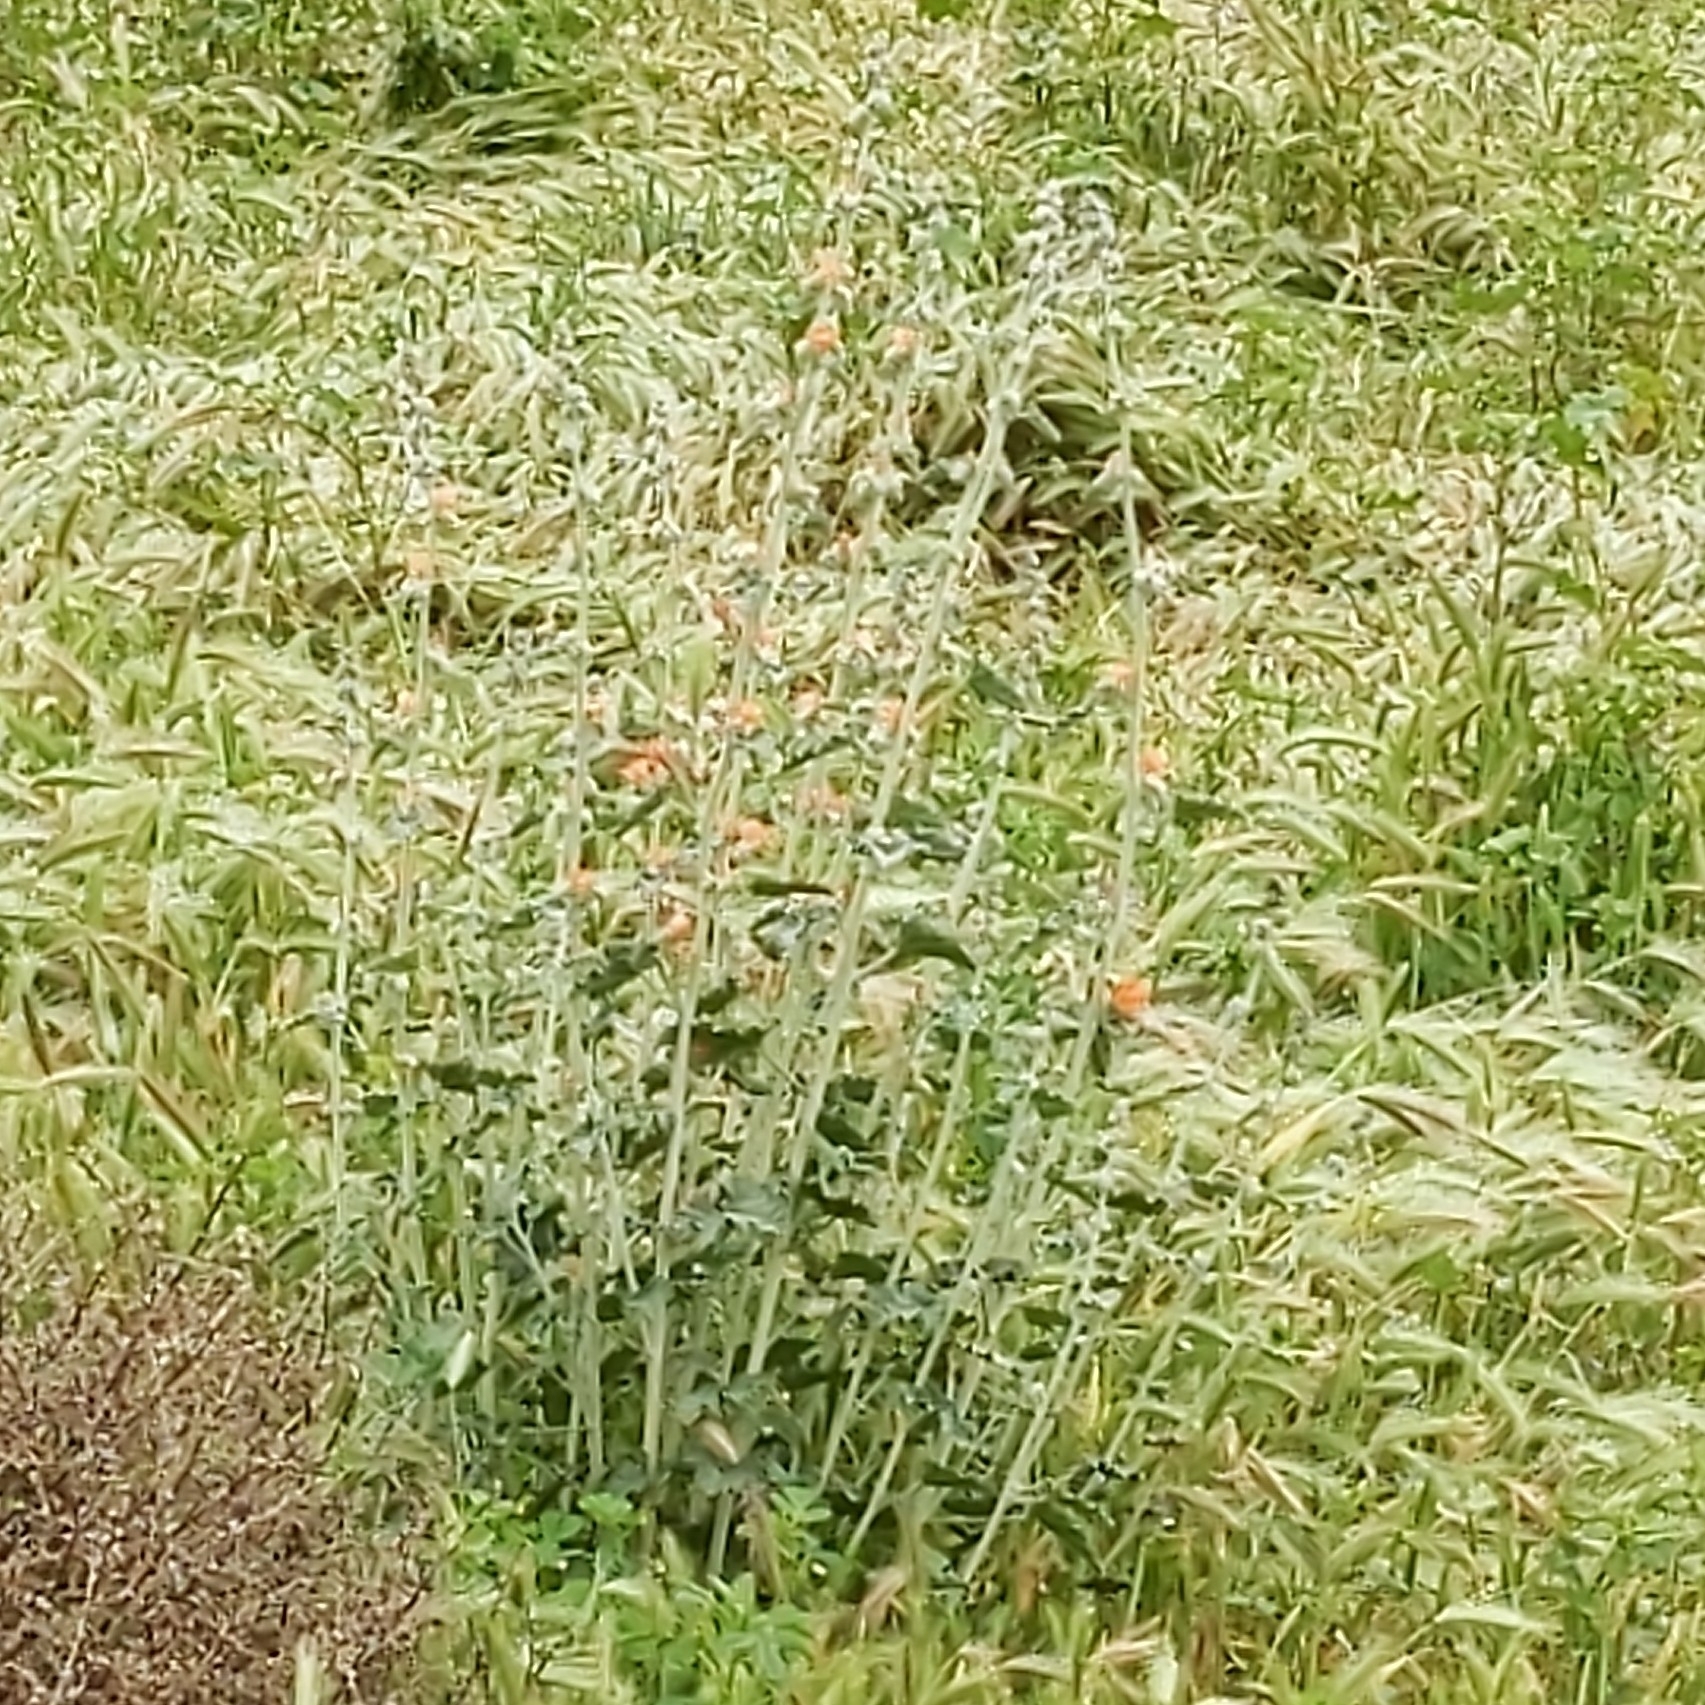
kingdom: Plantae
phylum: Tracheophyta
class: Magnoliopsida
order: Malvales
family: Malvaceae
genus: Sphaeralcea
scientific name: Sphaeralcea ambigua
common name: Apricot globe-mallow
